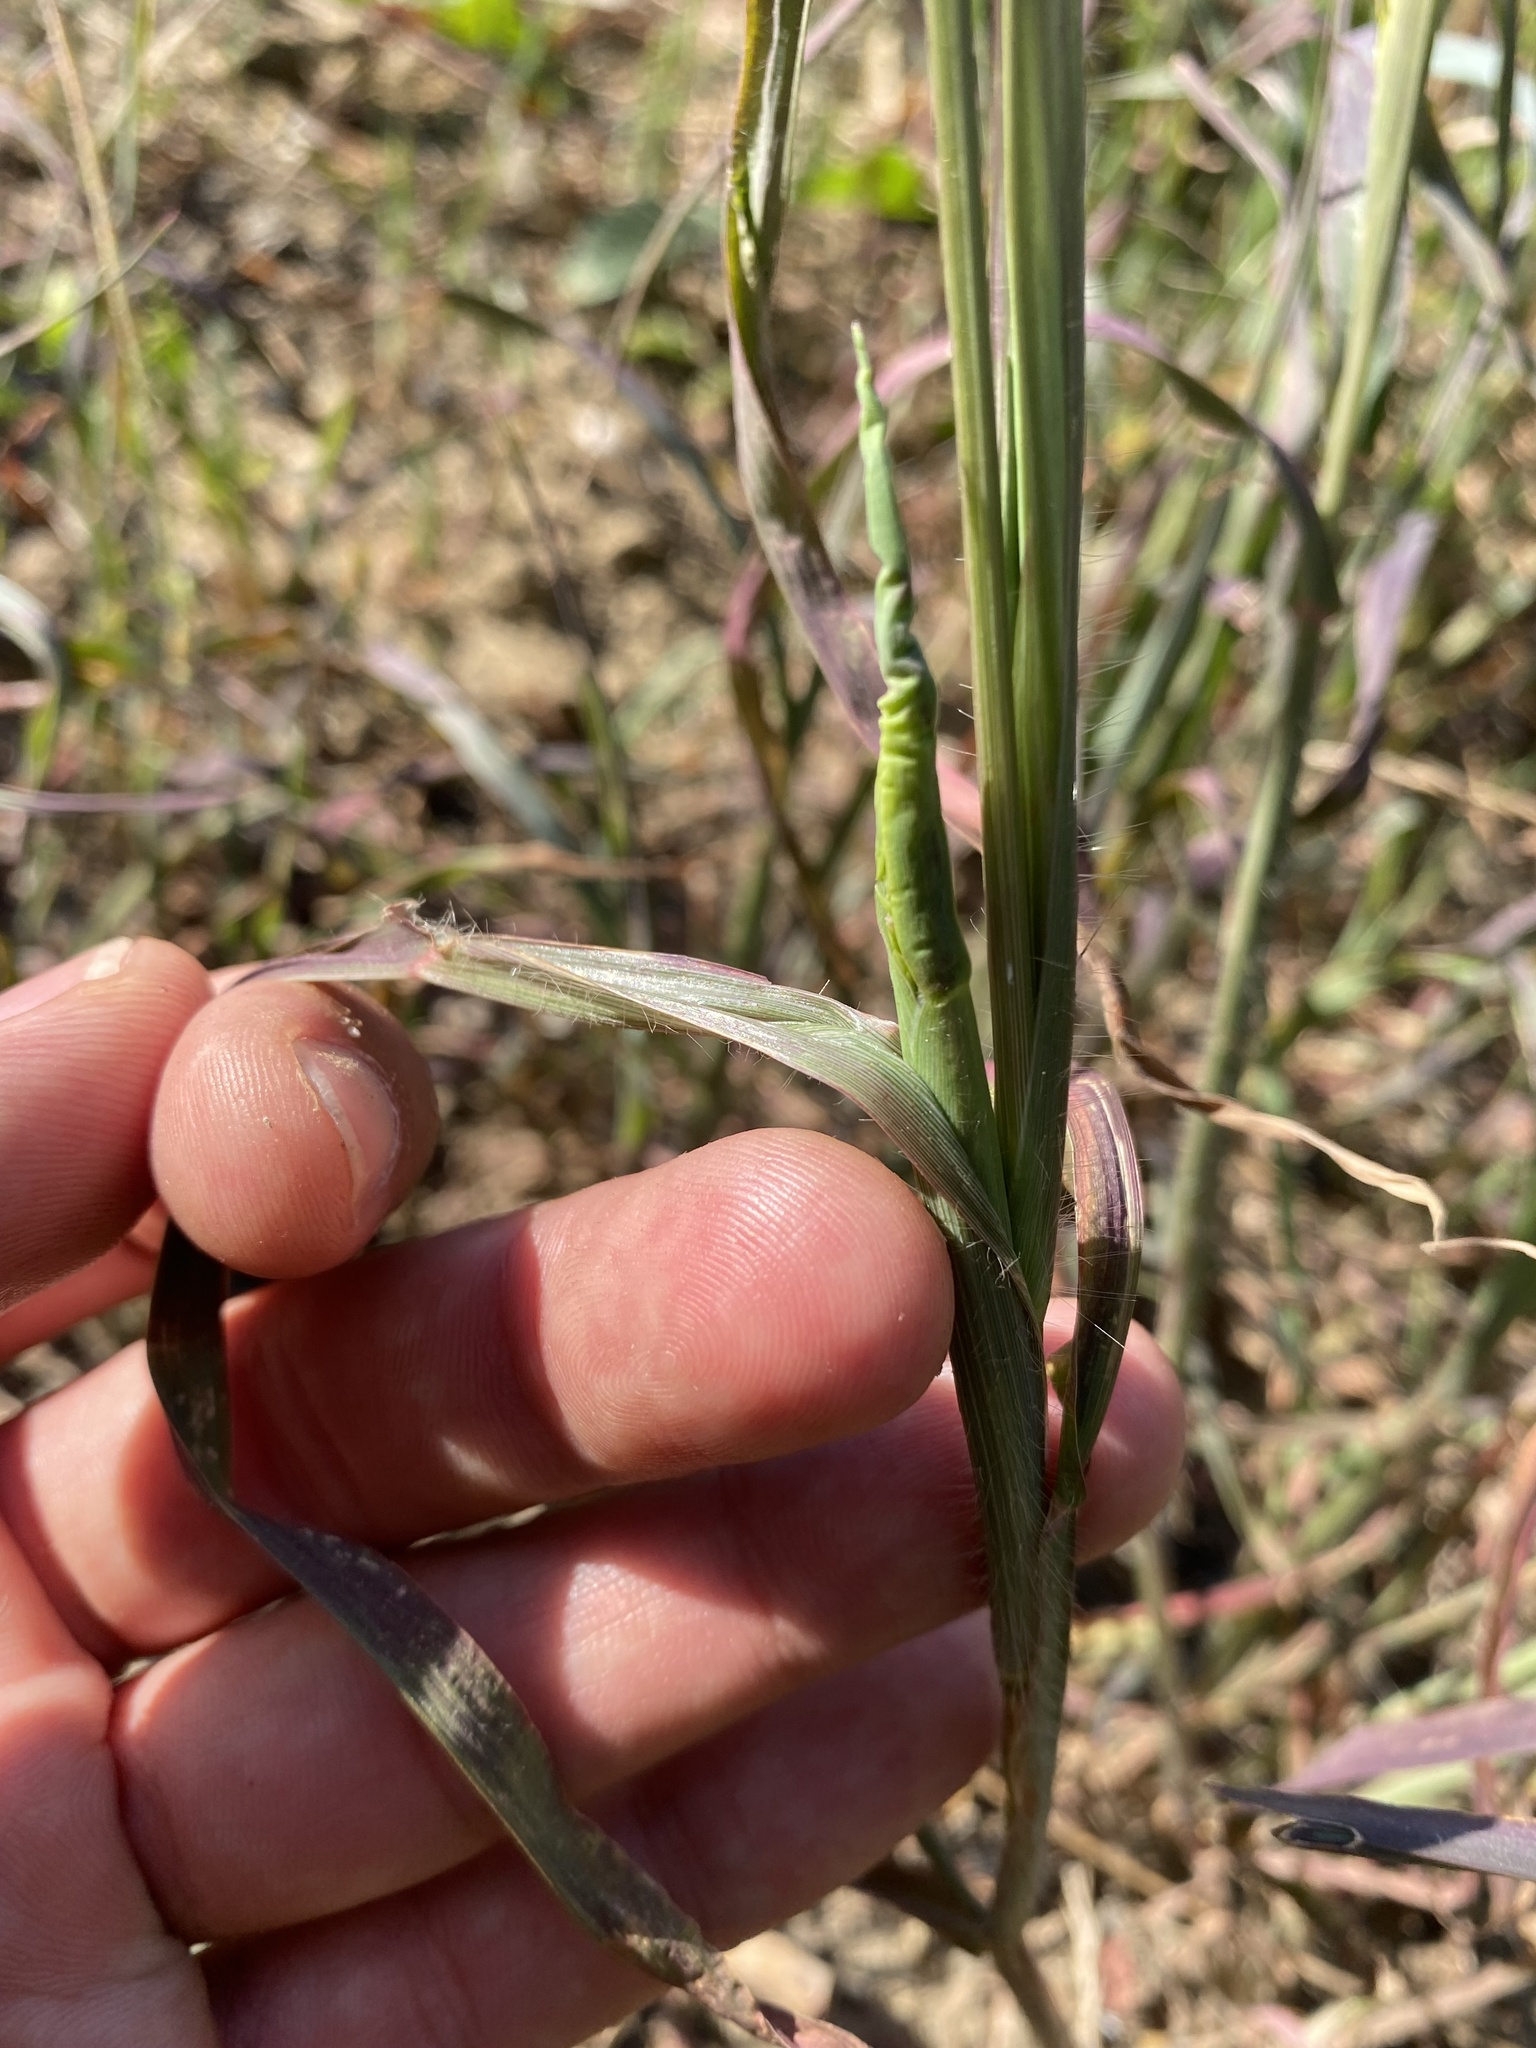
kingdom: Plantae
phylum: Tracheophyta
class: Liliopsida
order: Poales
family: Poaceae
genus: Digitaria
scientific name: Digitaria sanguinalis
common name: Hairy crabgrass
